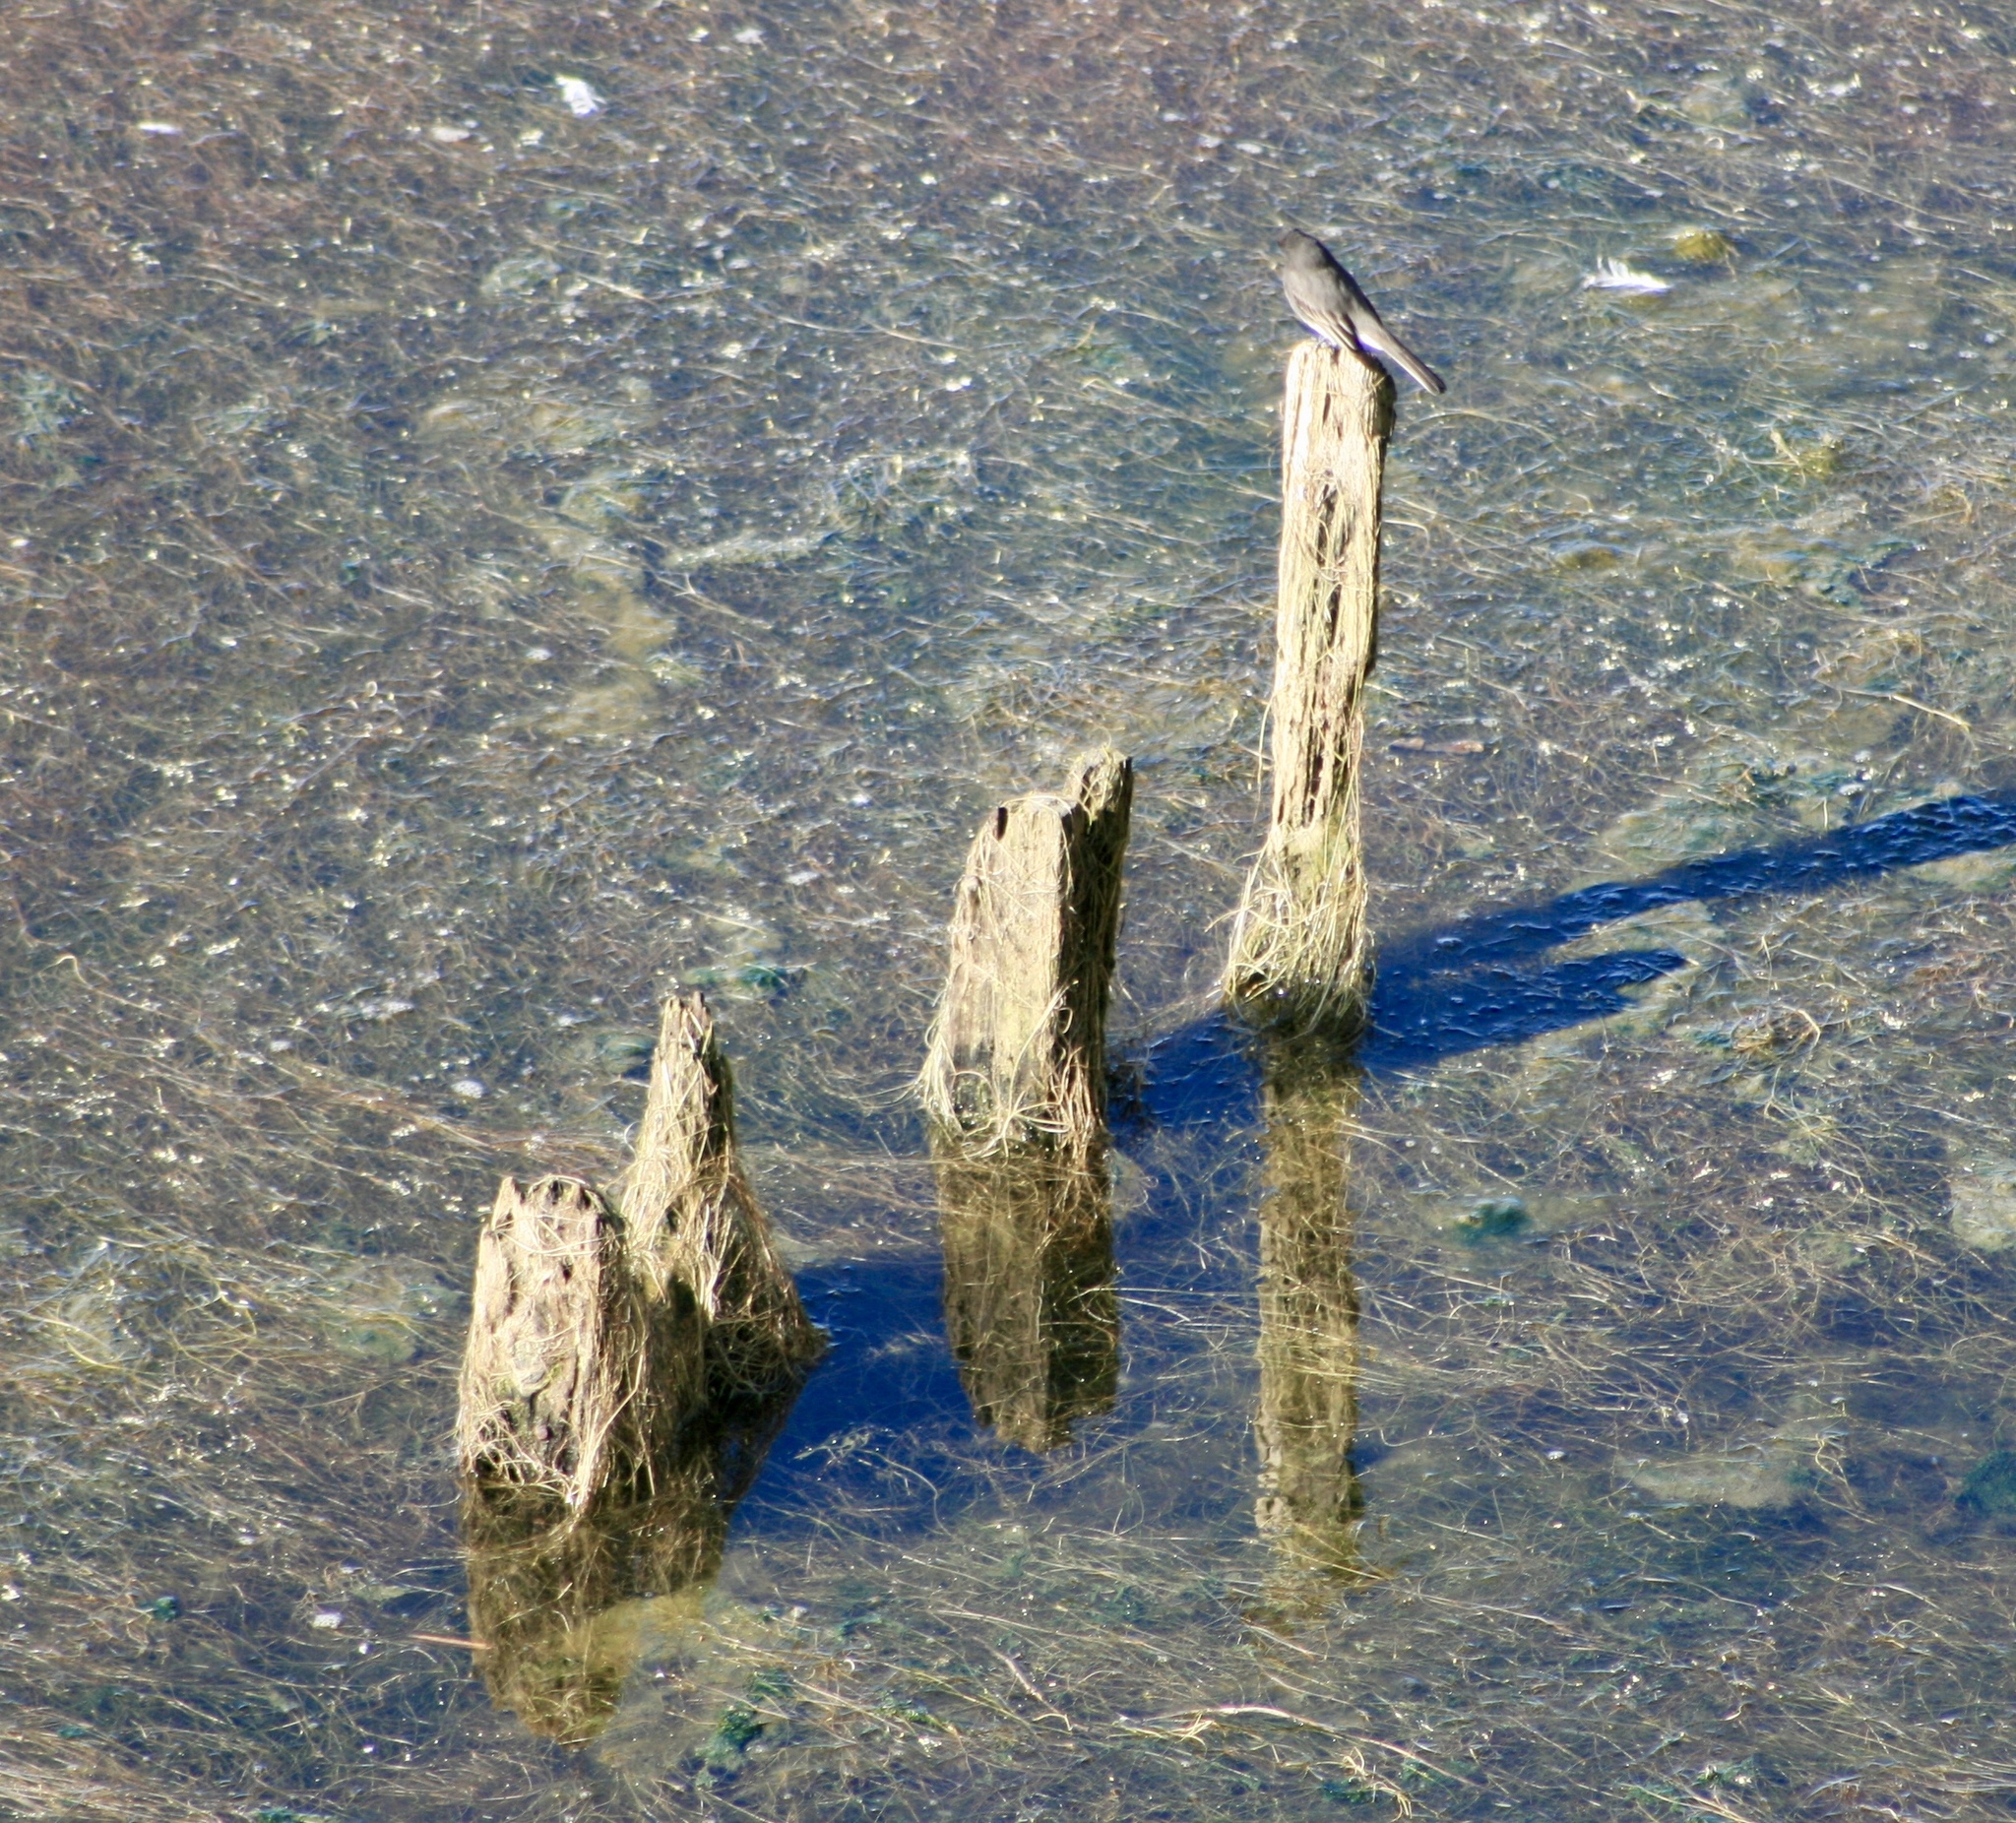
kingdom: Animalia
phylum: Chordata
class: Aves
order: Passeriformes
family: Tyrannidae
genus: Sayornis
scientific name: Sayornis nigricans
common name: Black phoebe
